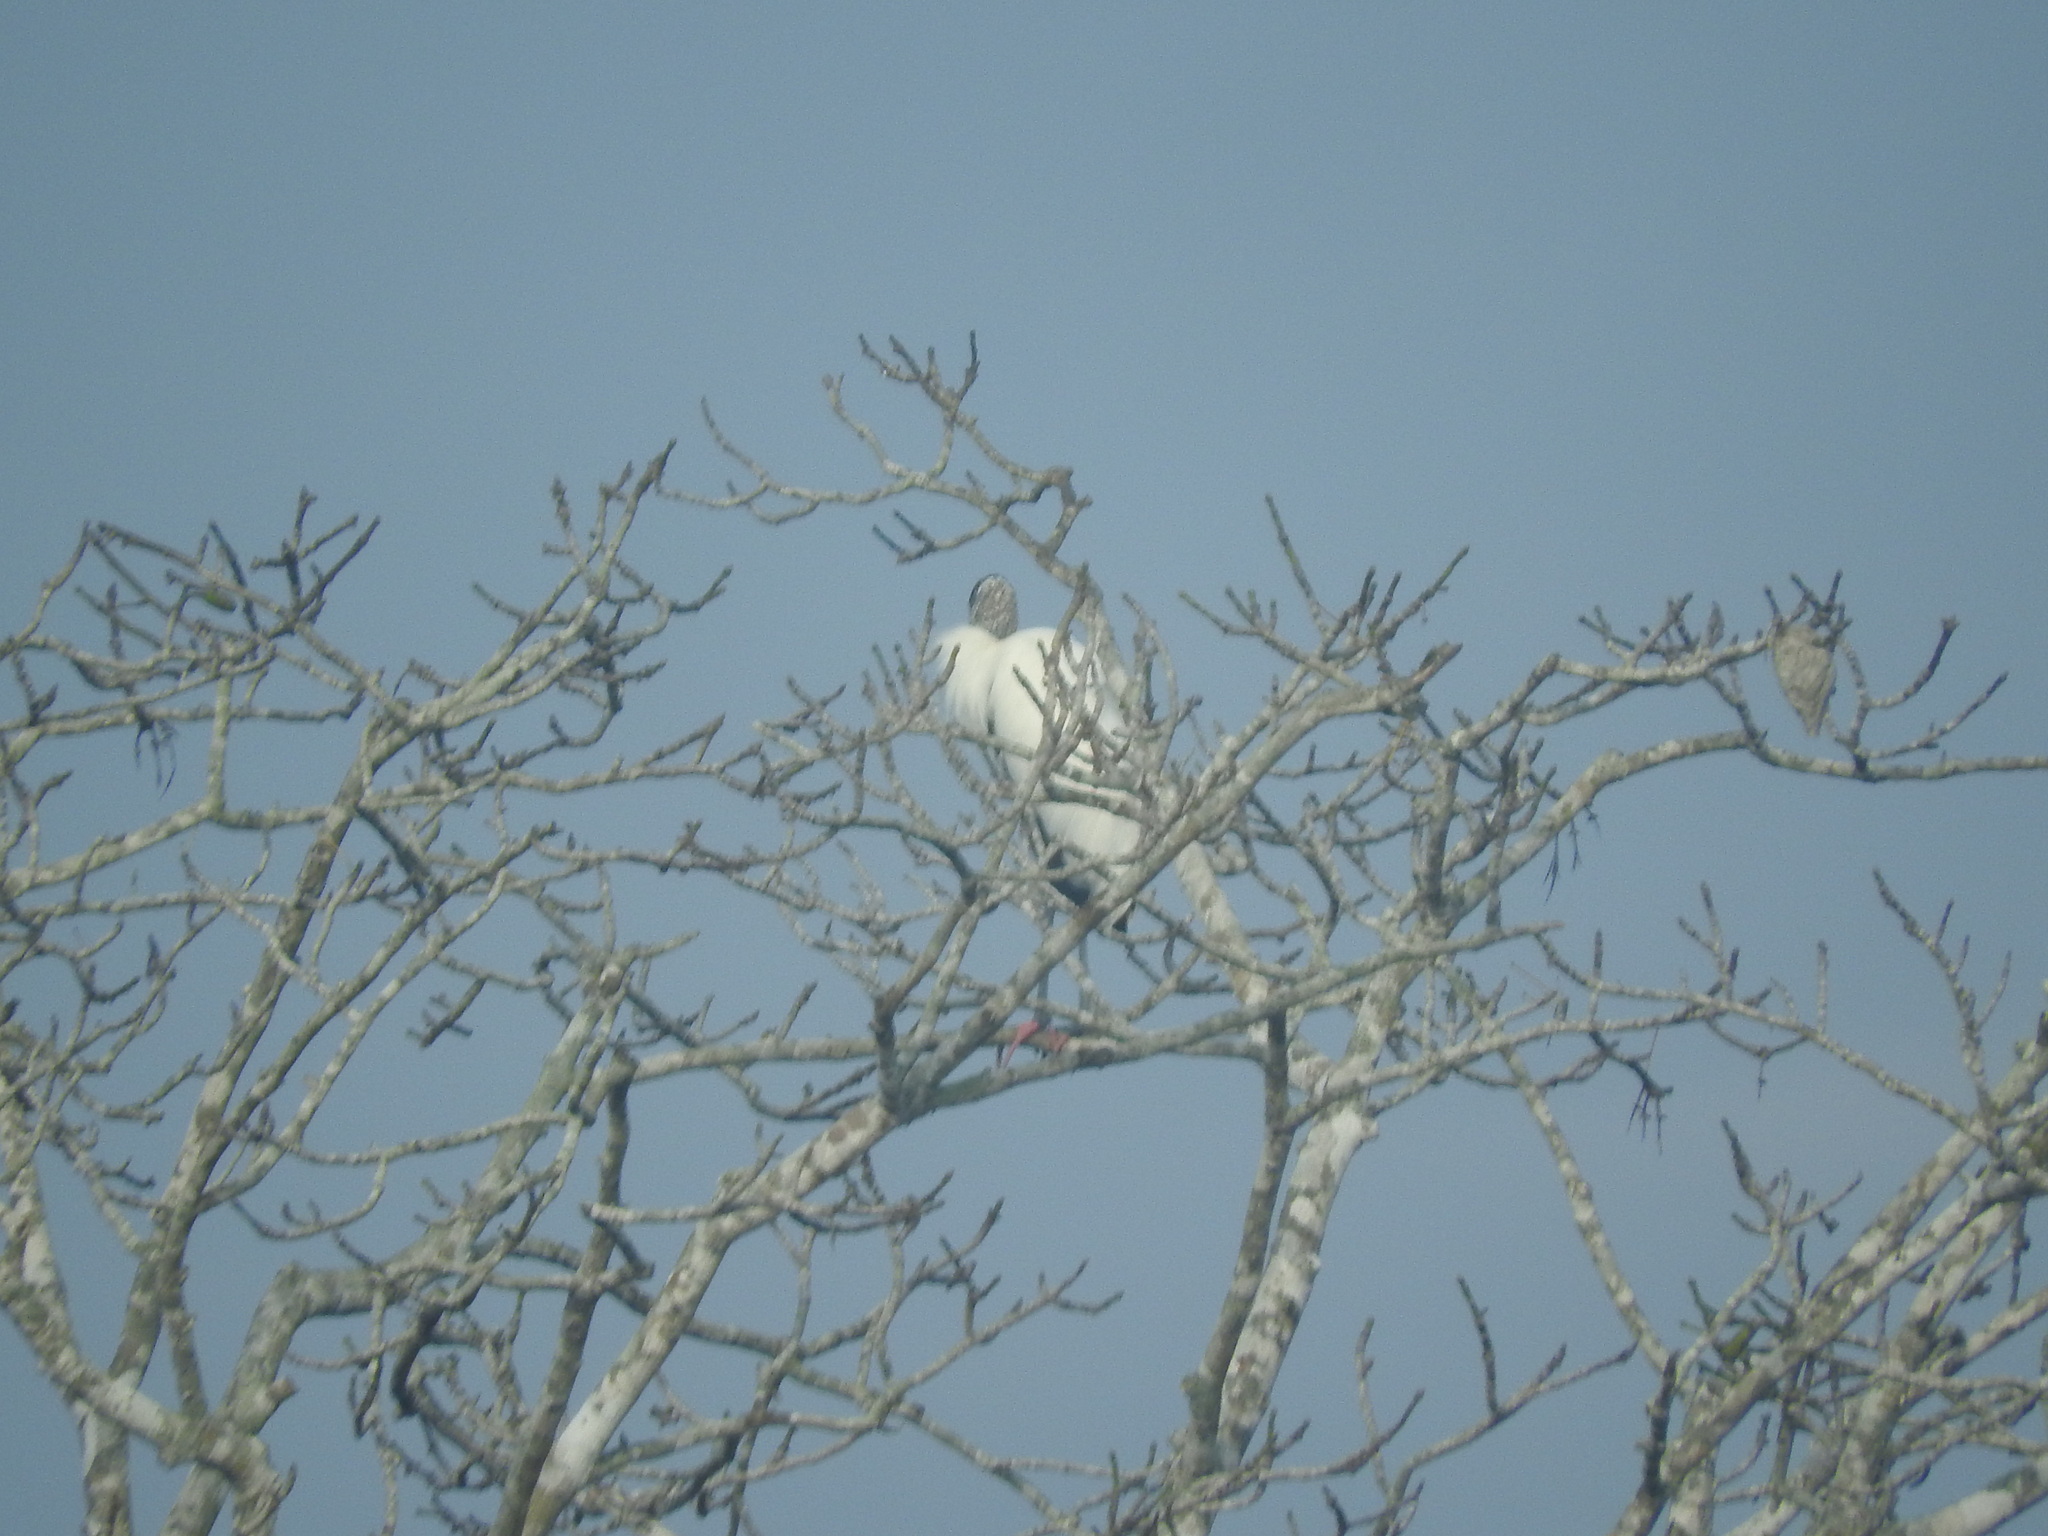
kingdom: Animalia
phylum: Chordata
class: Aves
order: Ciconiiformes
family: Ciconiidae
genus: Mycteria
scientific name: Mycteria americana
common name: Wood stork
